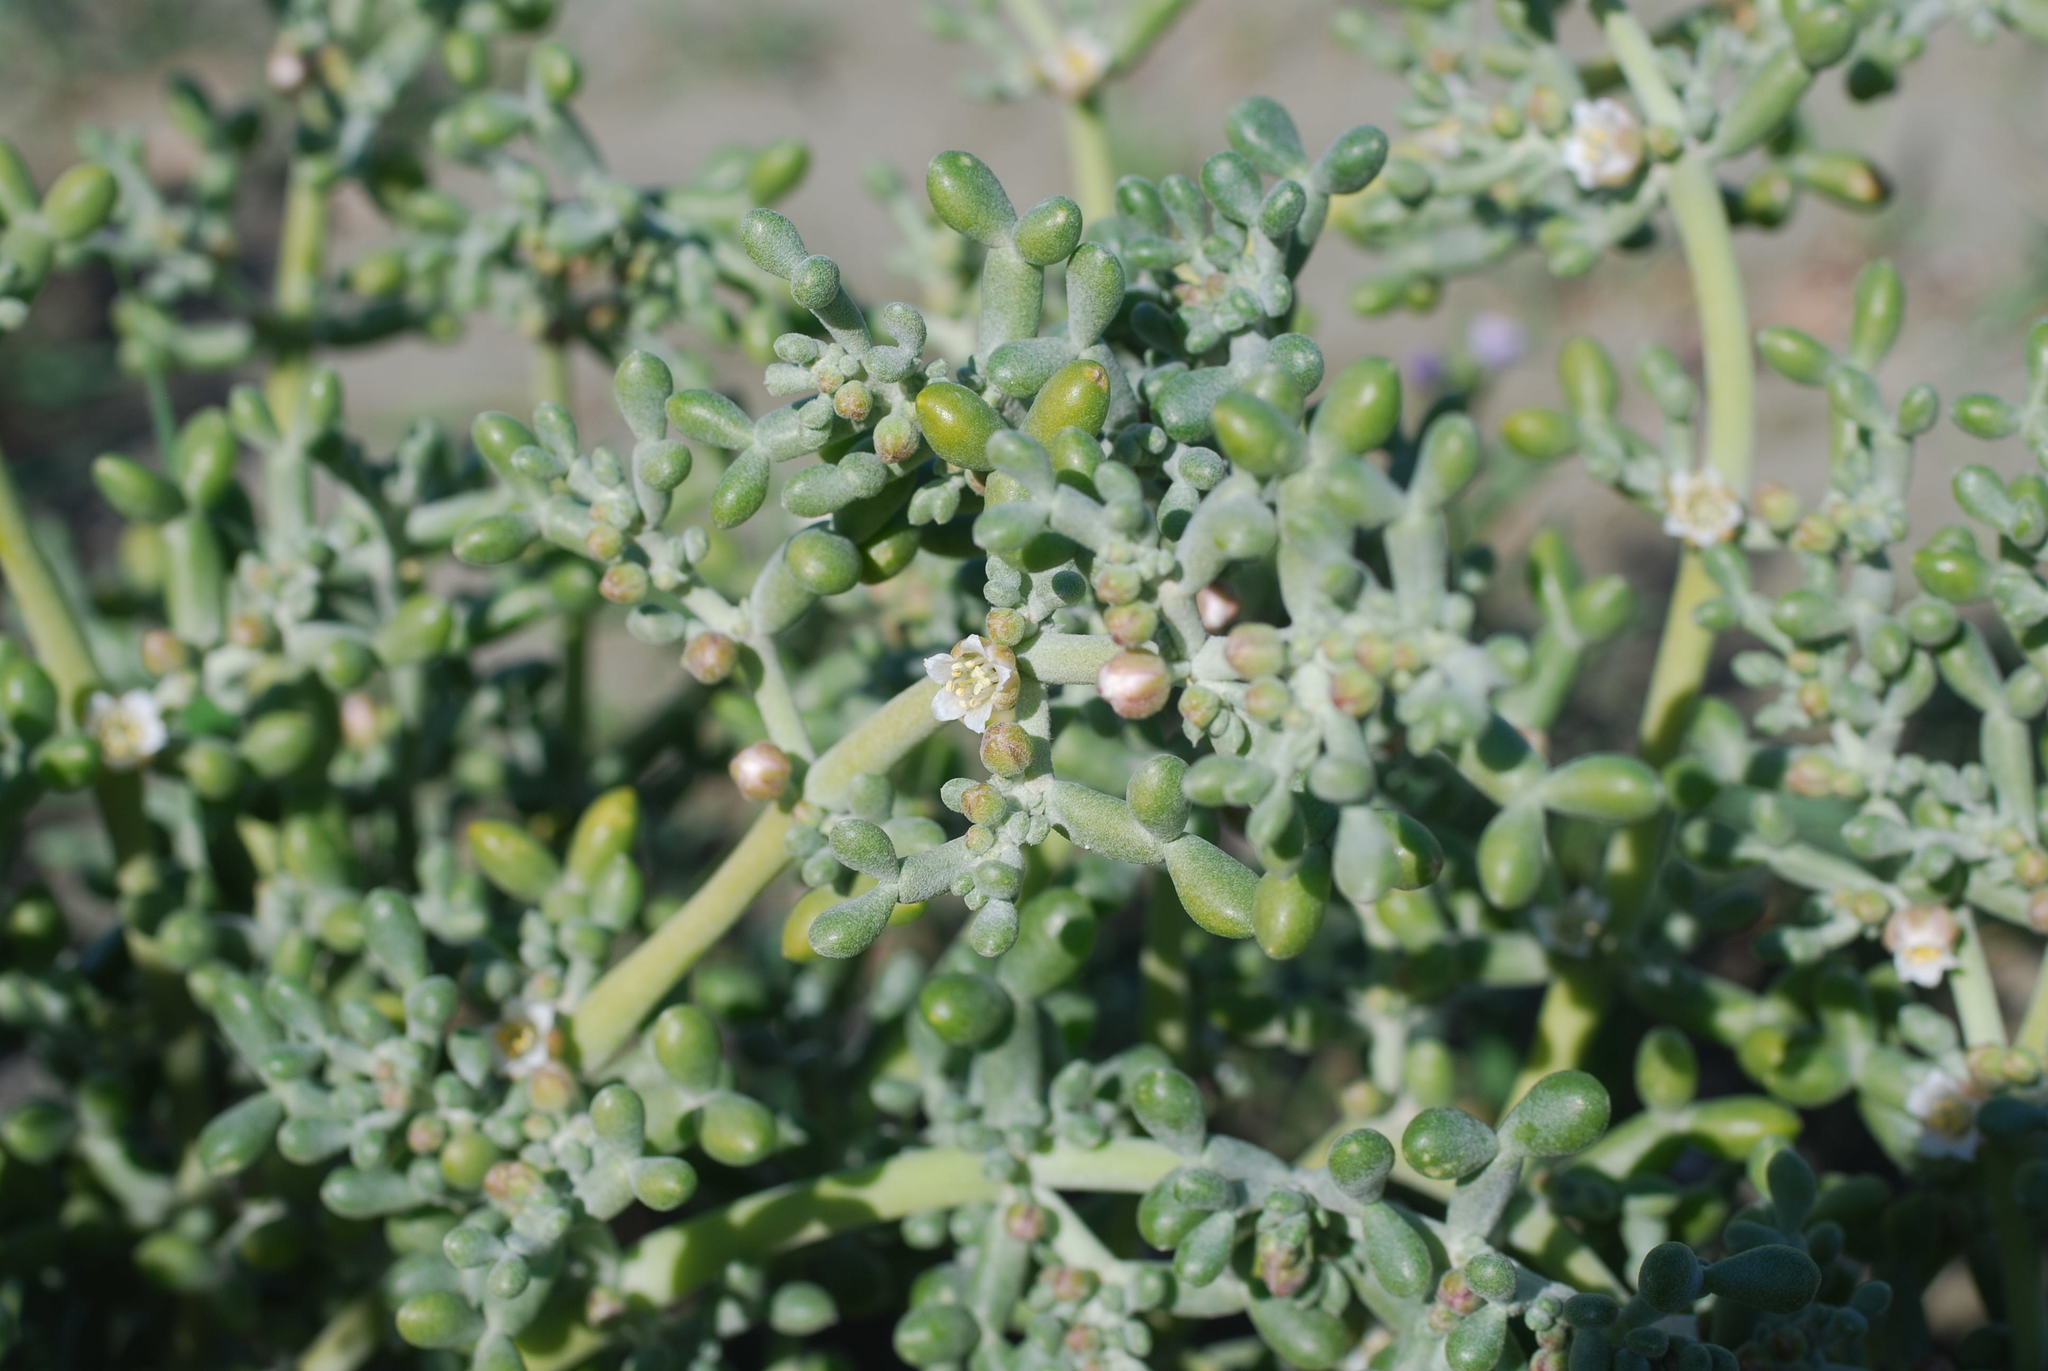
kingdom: Plantae
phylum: Tracheophyta
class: Magnoliopsida
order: Zygophyllales
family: Zygophyllaceae
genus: Tetraena
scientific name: Tetraena alba
